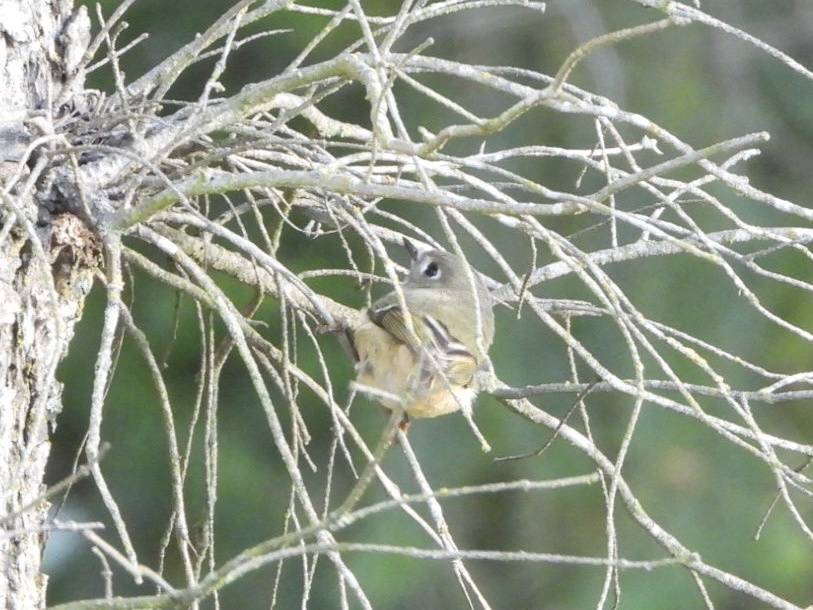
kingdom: Animalia
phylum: Chordata
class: Aves
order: Passeriformes
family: Regulidae
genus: Regulus
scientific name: Regulus calendula
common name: Ruby-crowned kinglet
